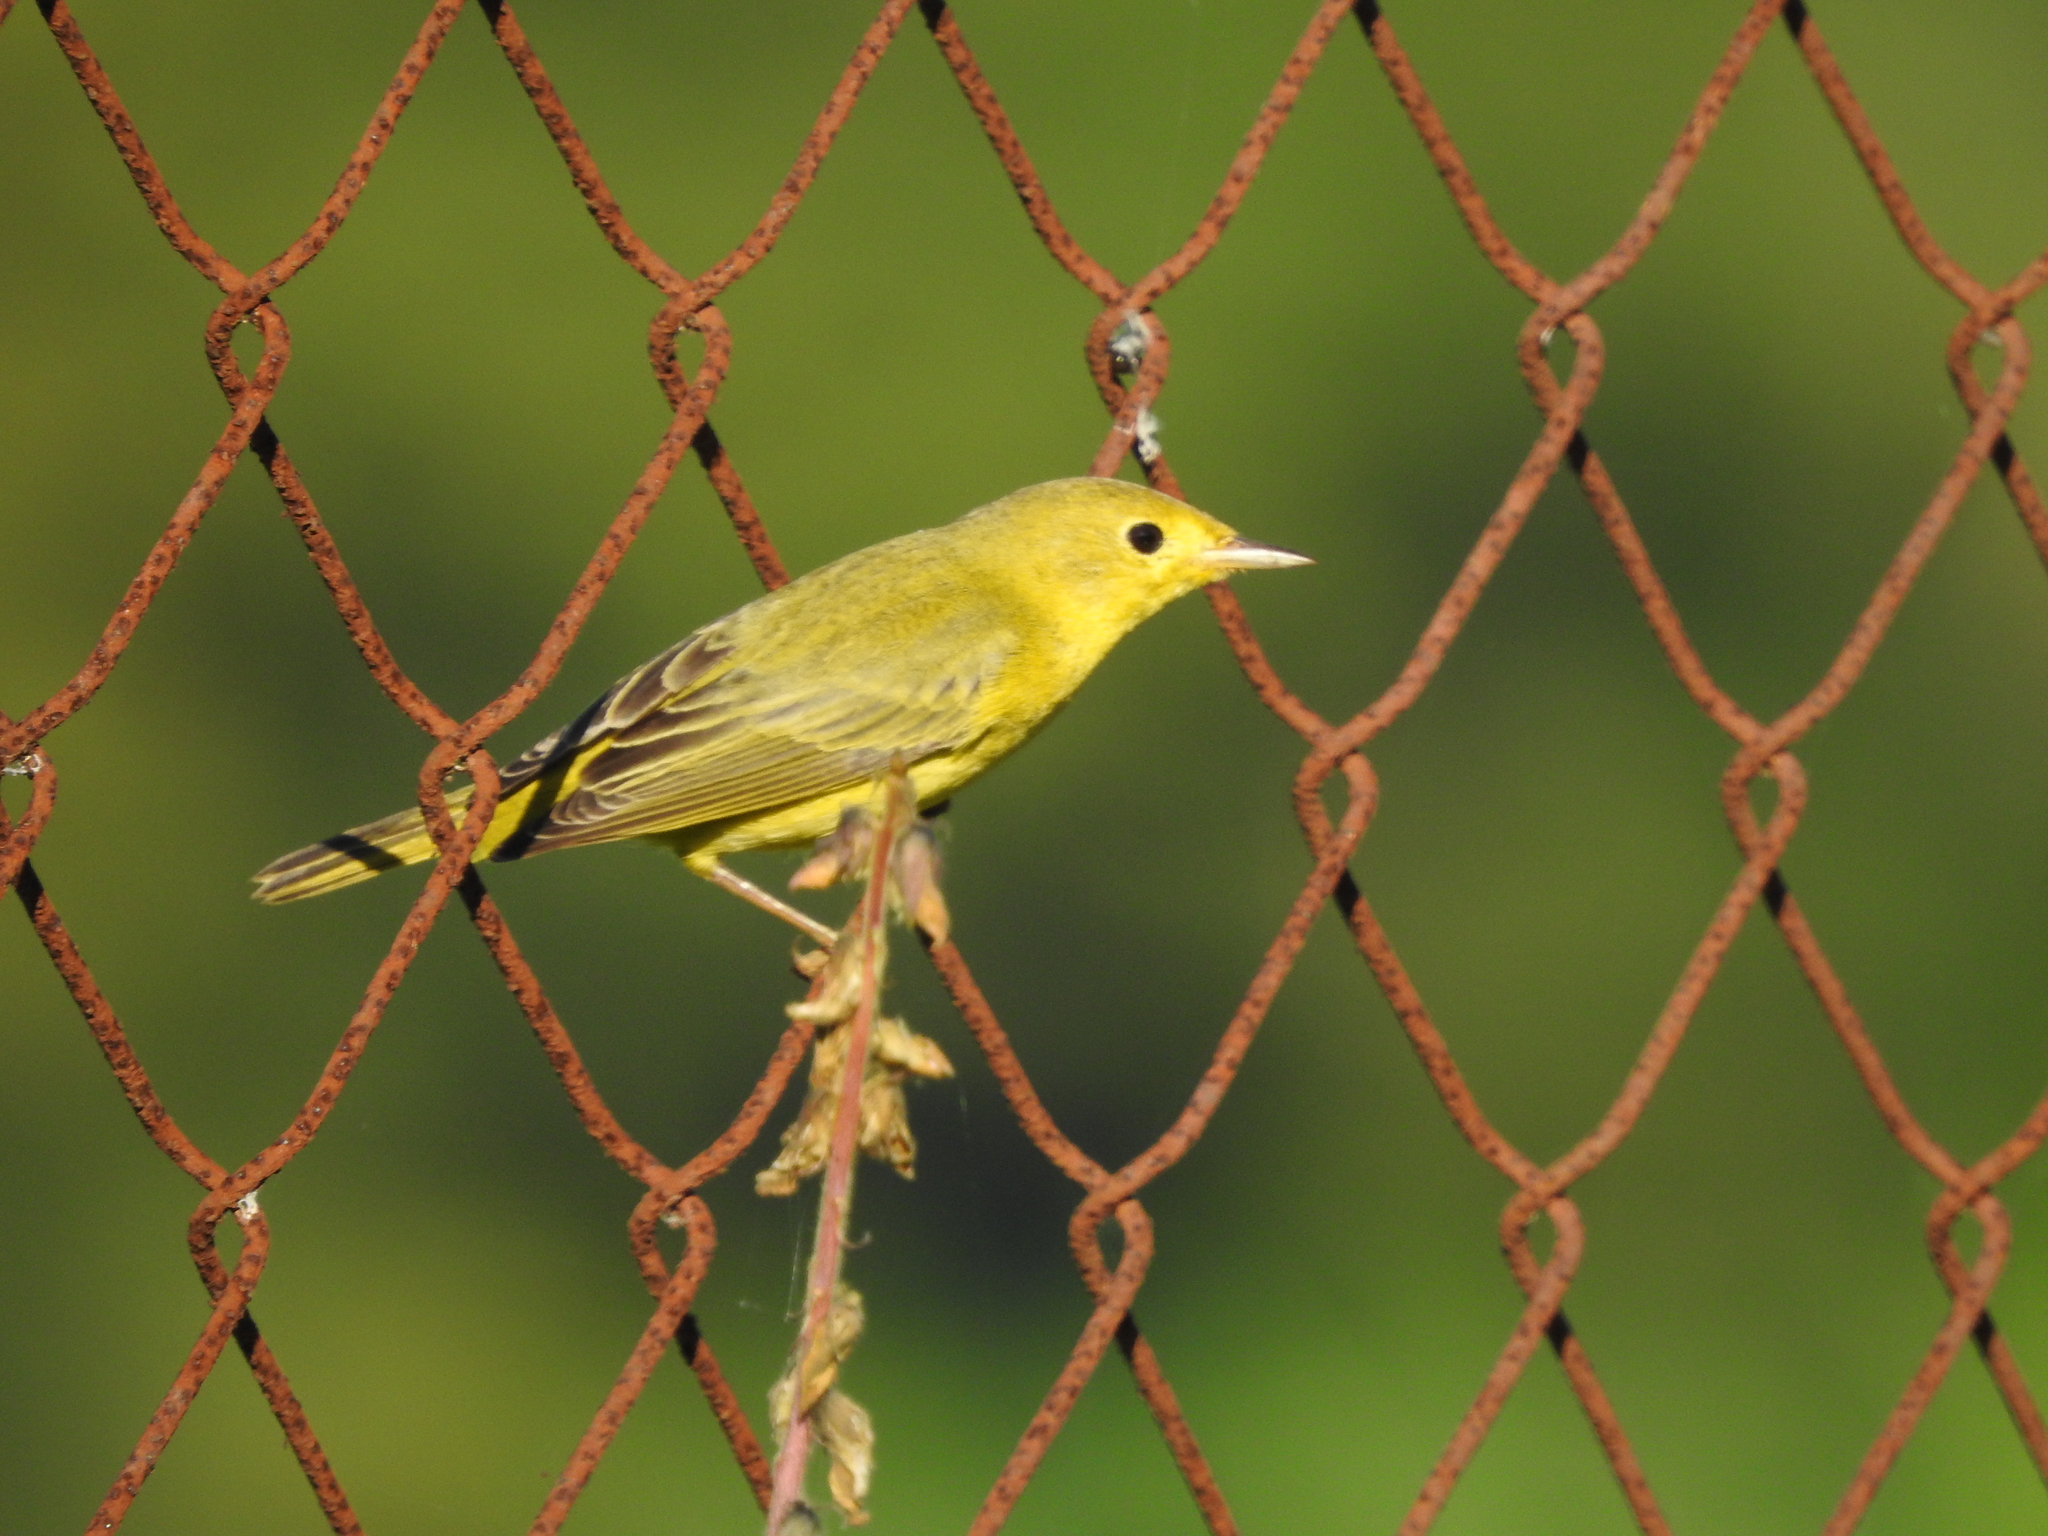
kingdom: Animalia
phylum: Chordata
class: Aves
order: Passeriformes
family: Parulidae
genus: Setophaga
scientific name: Setophaga petechia
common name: Yellow warbler
